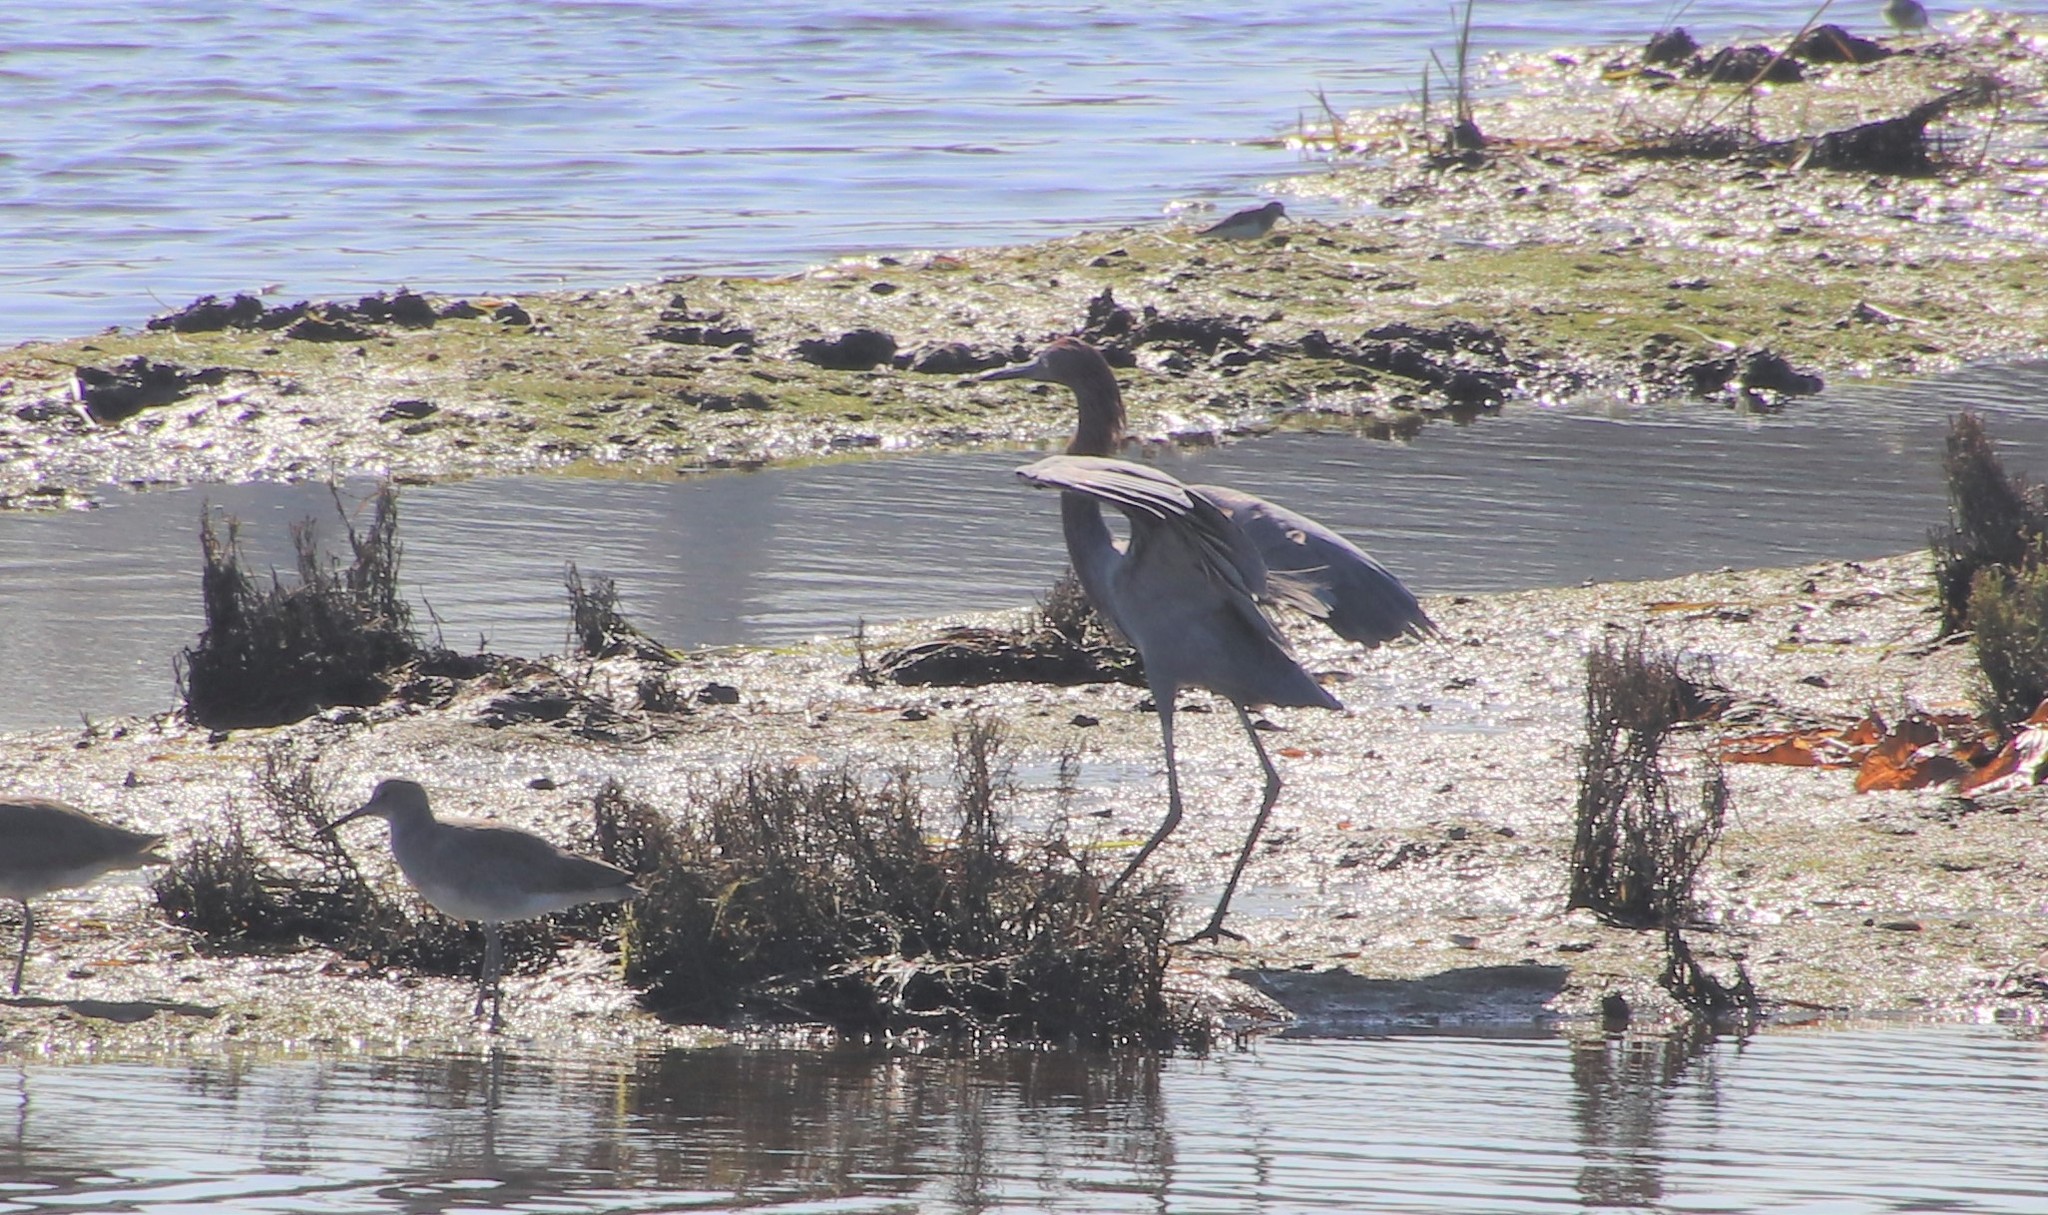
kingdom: Animalia
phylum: Chordata
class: Aves
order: Pelecaniformes
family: Ardeidae
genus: Egretta
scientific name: Egretta rufescens
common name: Reddish egret
